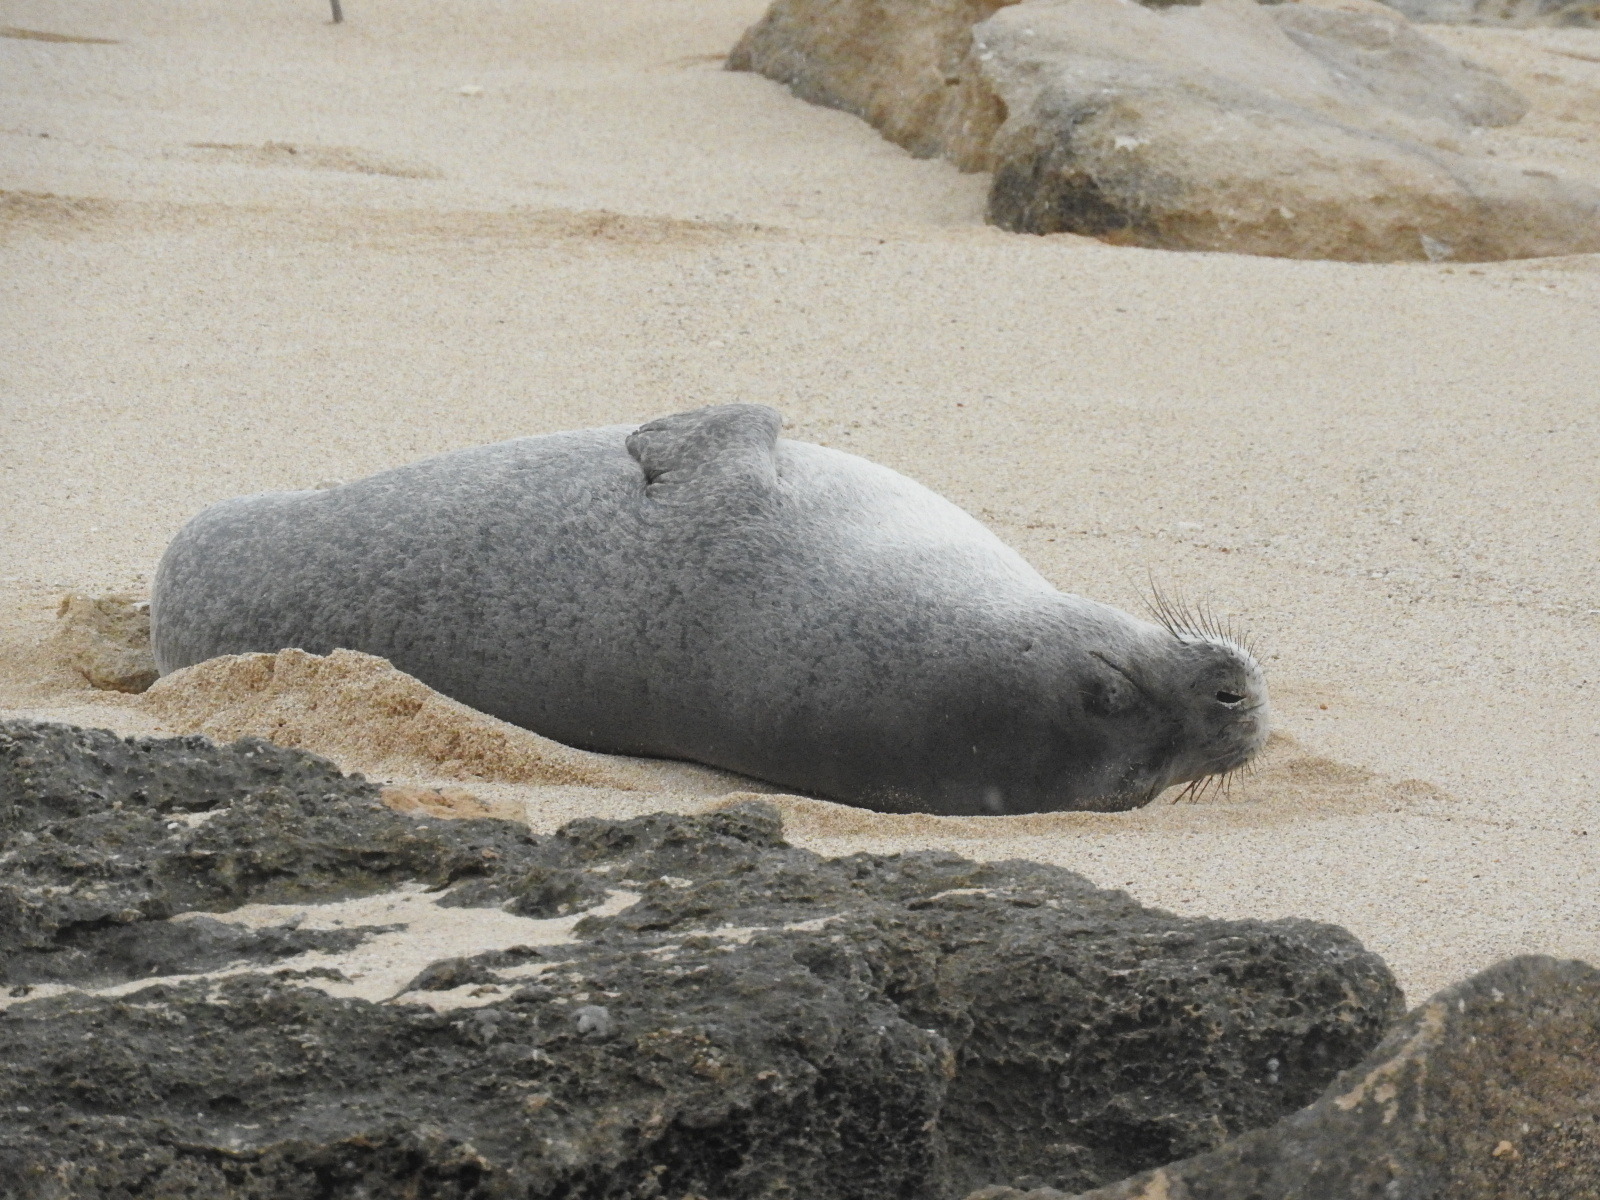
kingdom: Animalia
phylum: Chordata
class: Mammalia
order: Carnivora
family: Phocidae
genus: Neomonachus
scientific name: Neomonachus schauinslandi
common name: Hawaiian monk seal
